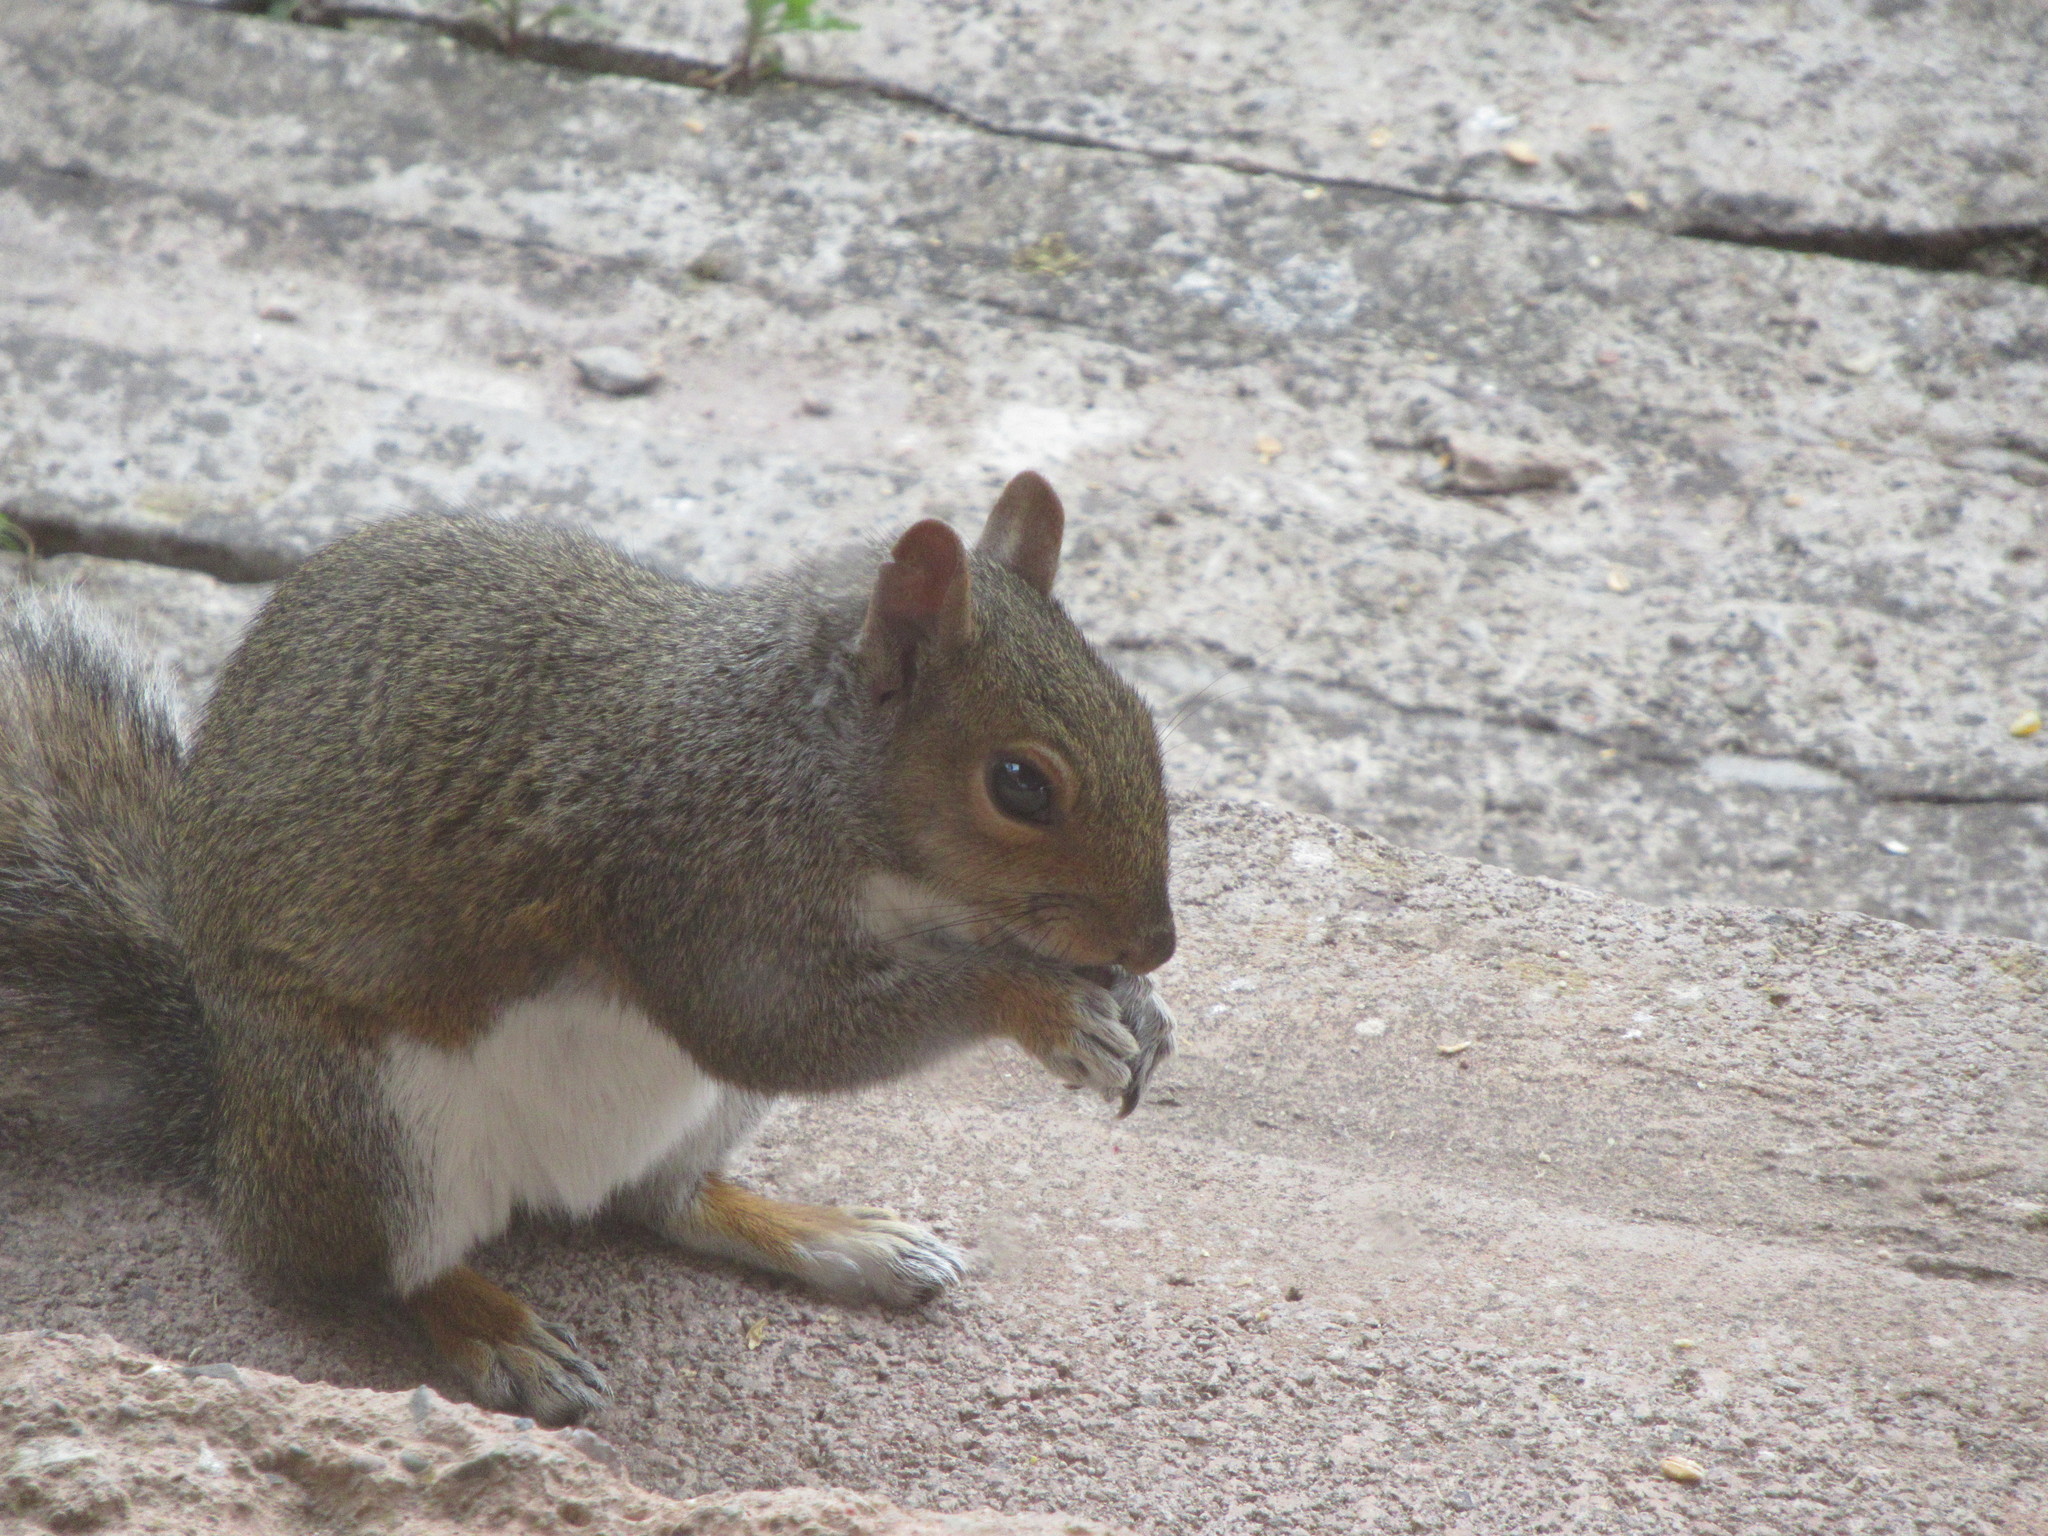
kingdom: Animalia
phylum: Chordata
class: Mammalia
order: Rodentia
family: Sciuridae
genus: Sciurus
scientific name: Sciurus carolinensis
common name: Eastern gray squirrel
